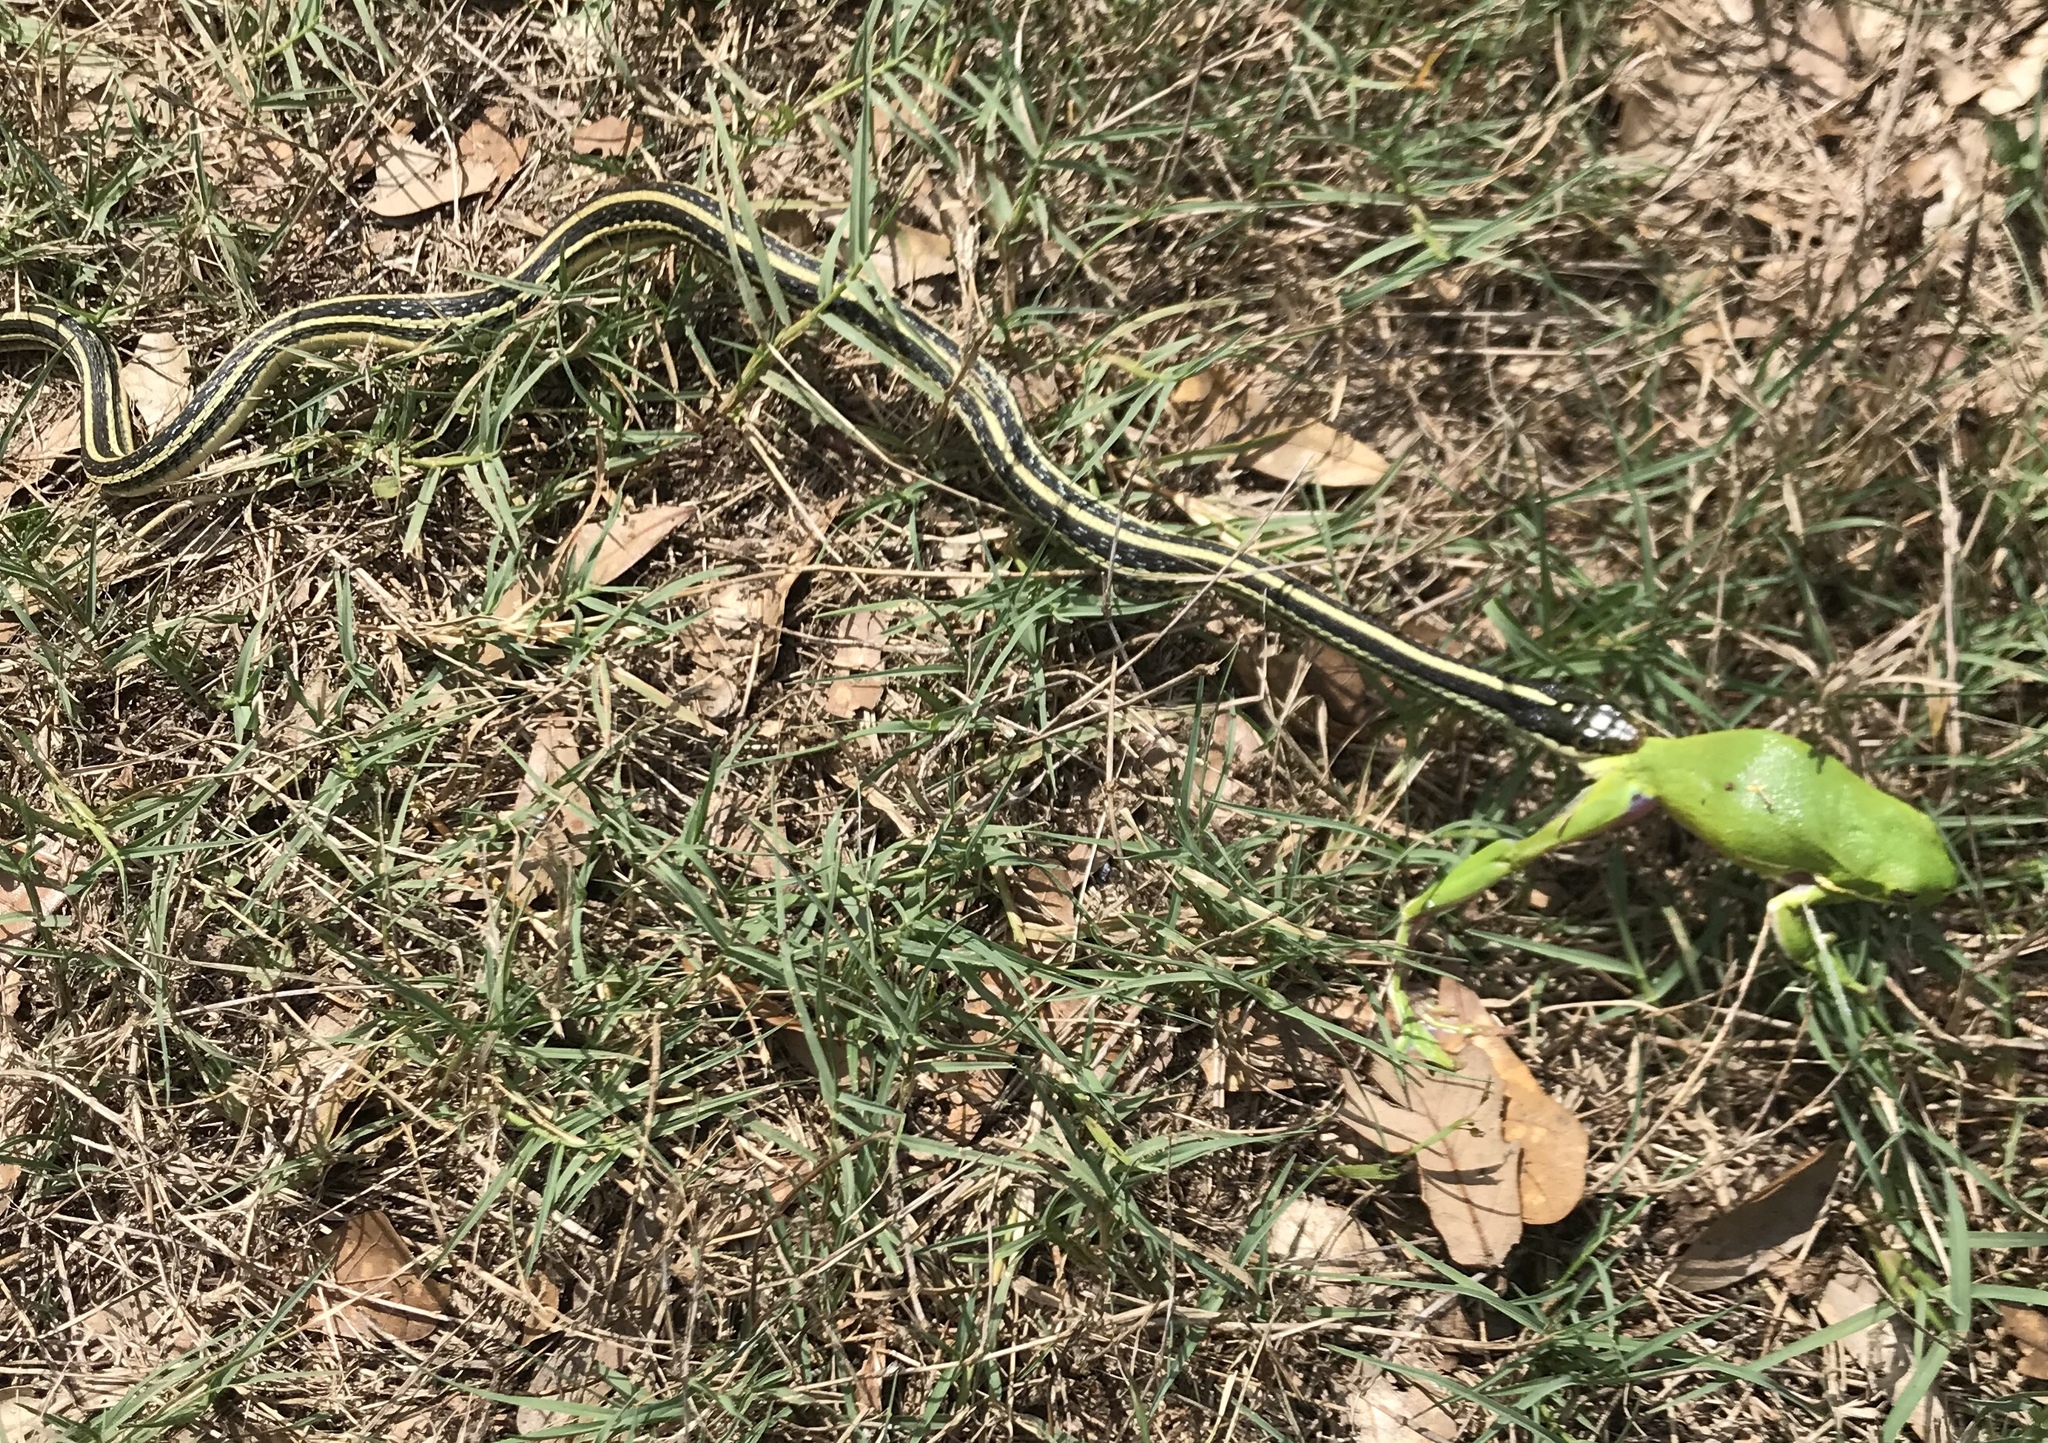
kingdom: Animalia
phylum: Chordata
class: Squamata
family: Colubridae
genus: Thamnophis
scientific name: Thamnophis proximus
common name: Western ribbon snake
